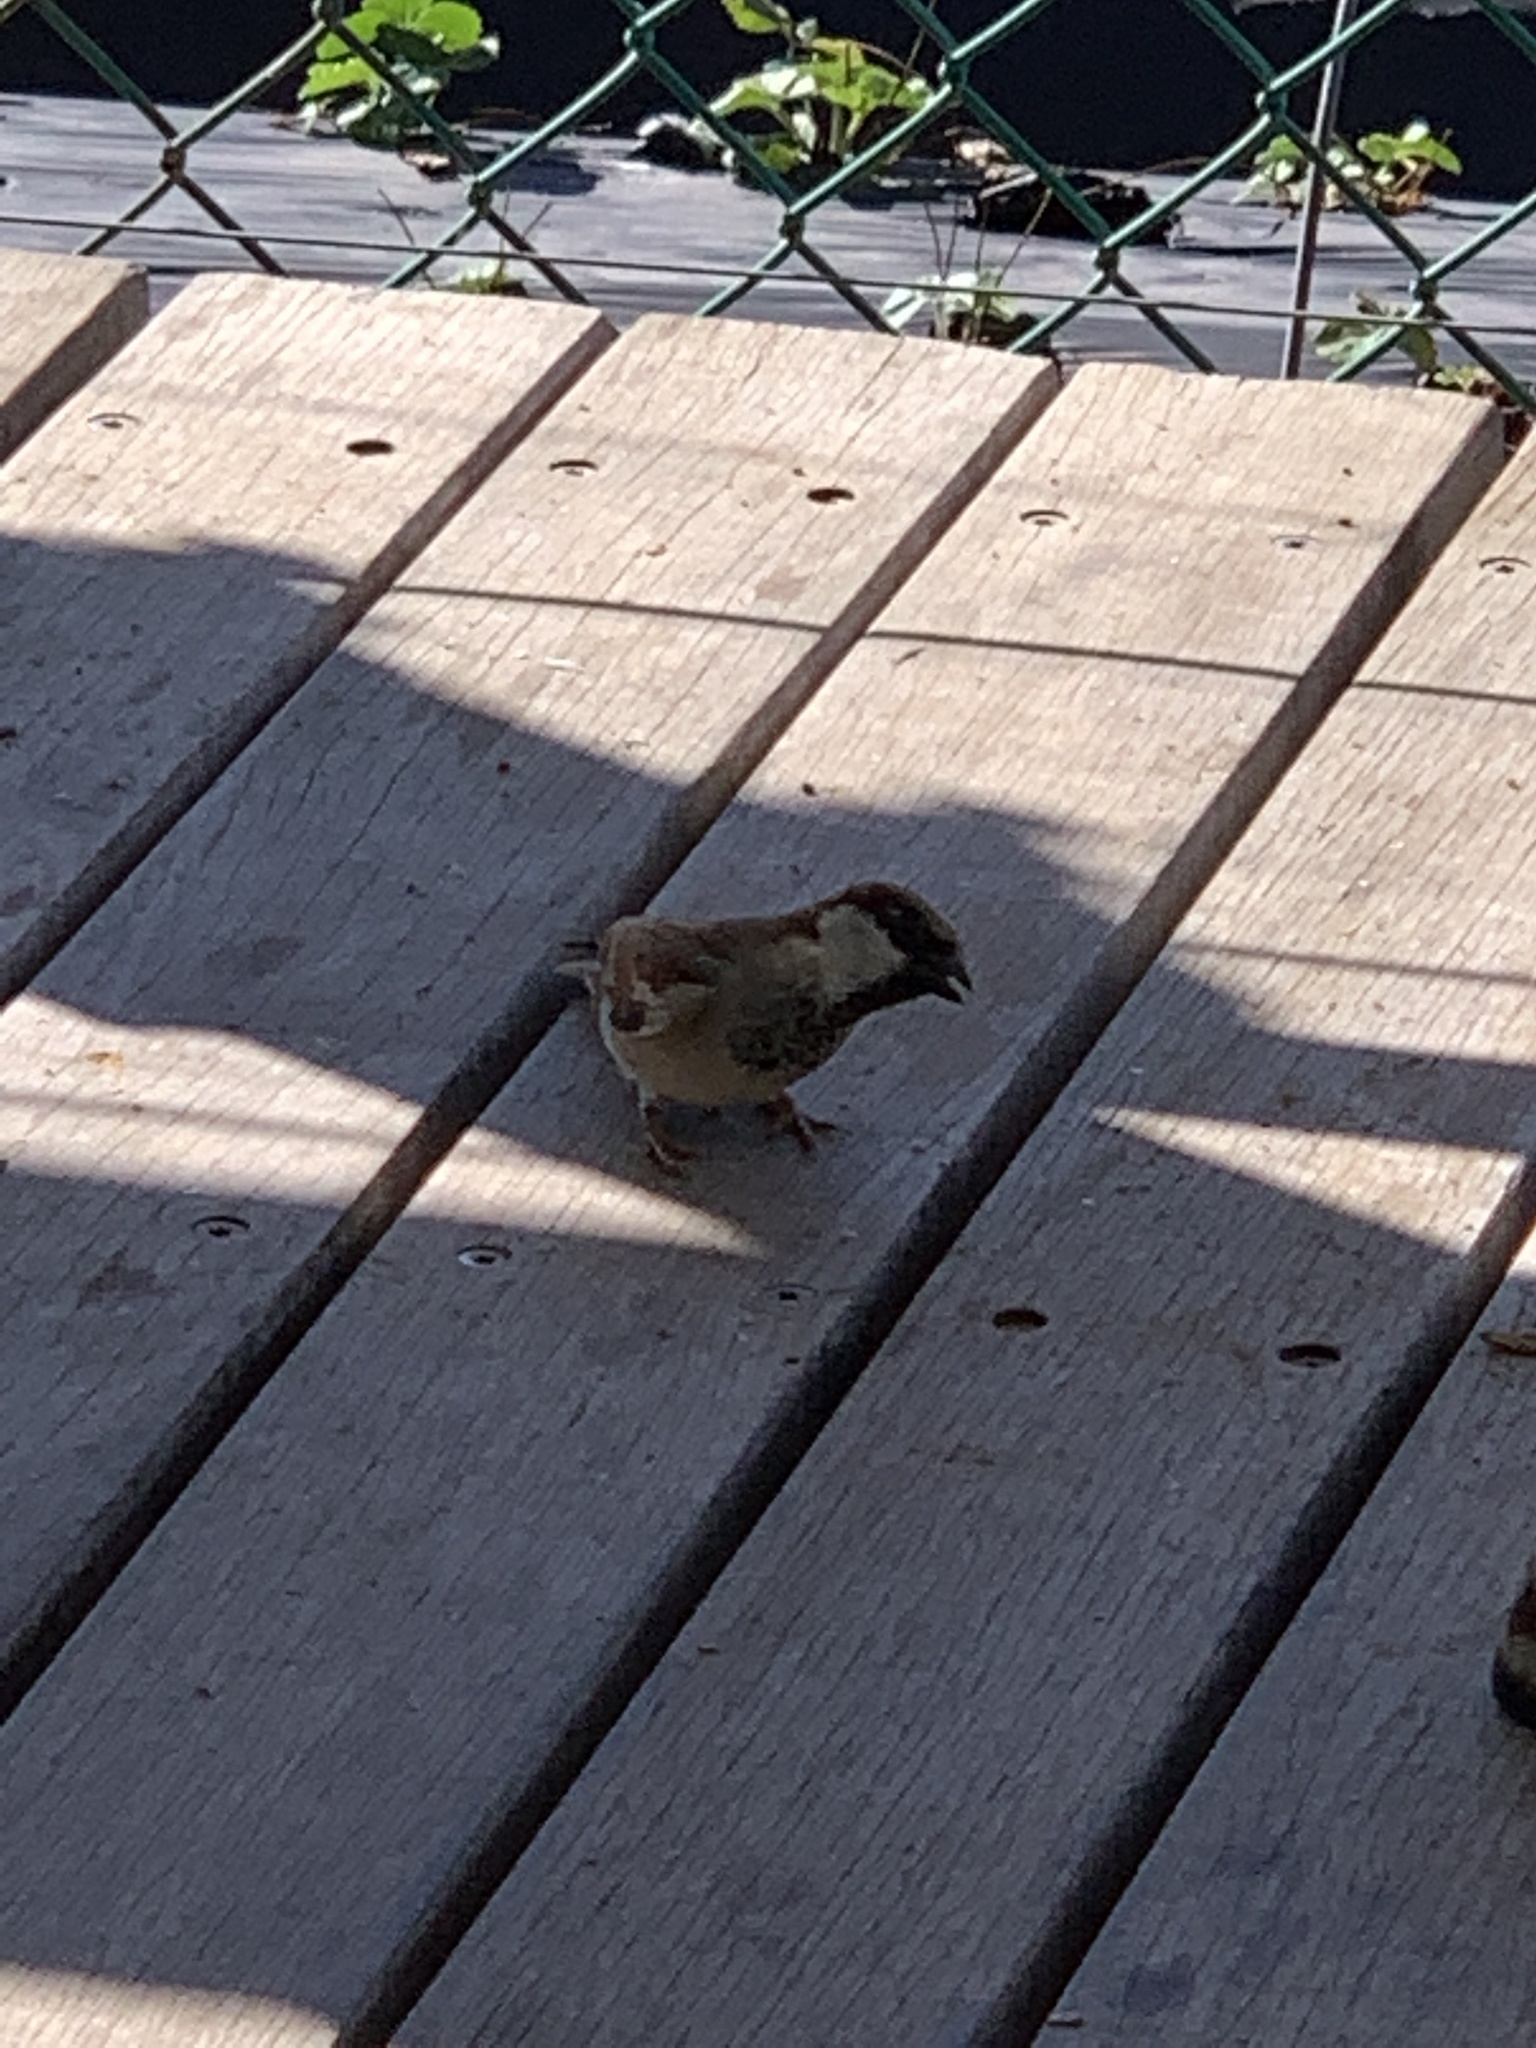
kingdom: Animalia
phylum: Chordata
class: Aves
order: Passeriformes
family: Passeridae
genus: Passer
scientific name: Passer domesticus
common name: House sparrow
